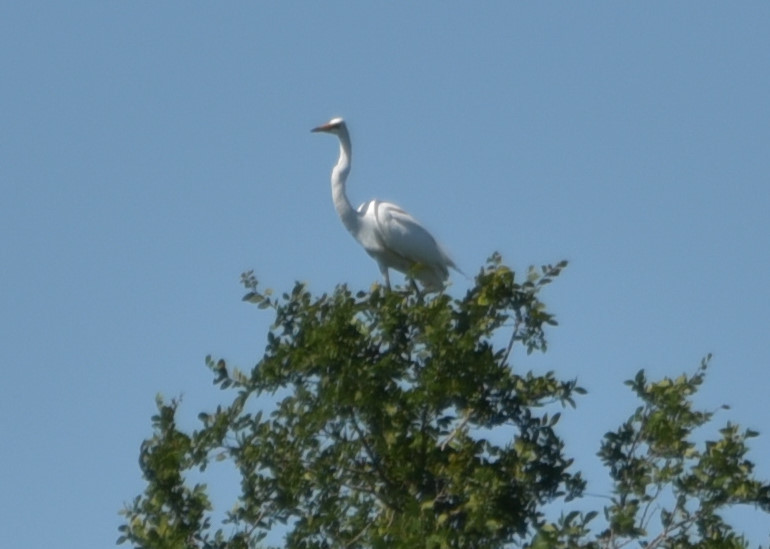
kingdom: Animalia
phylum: Chordata
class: Aves
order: Pelecaniformes
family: Ardeidae
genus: Ardea
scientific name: Ardea alba
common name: Great egret
